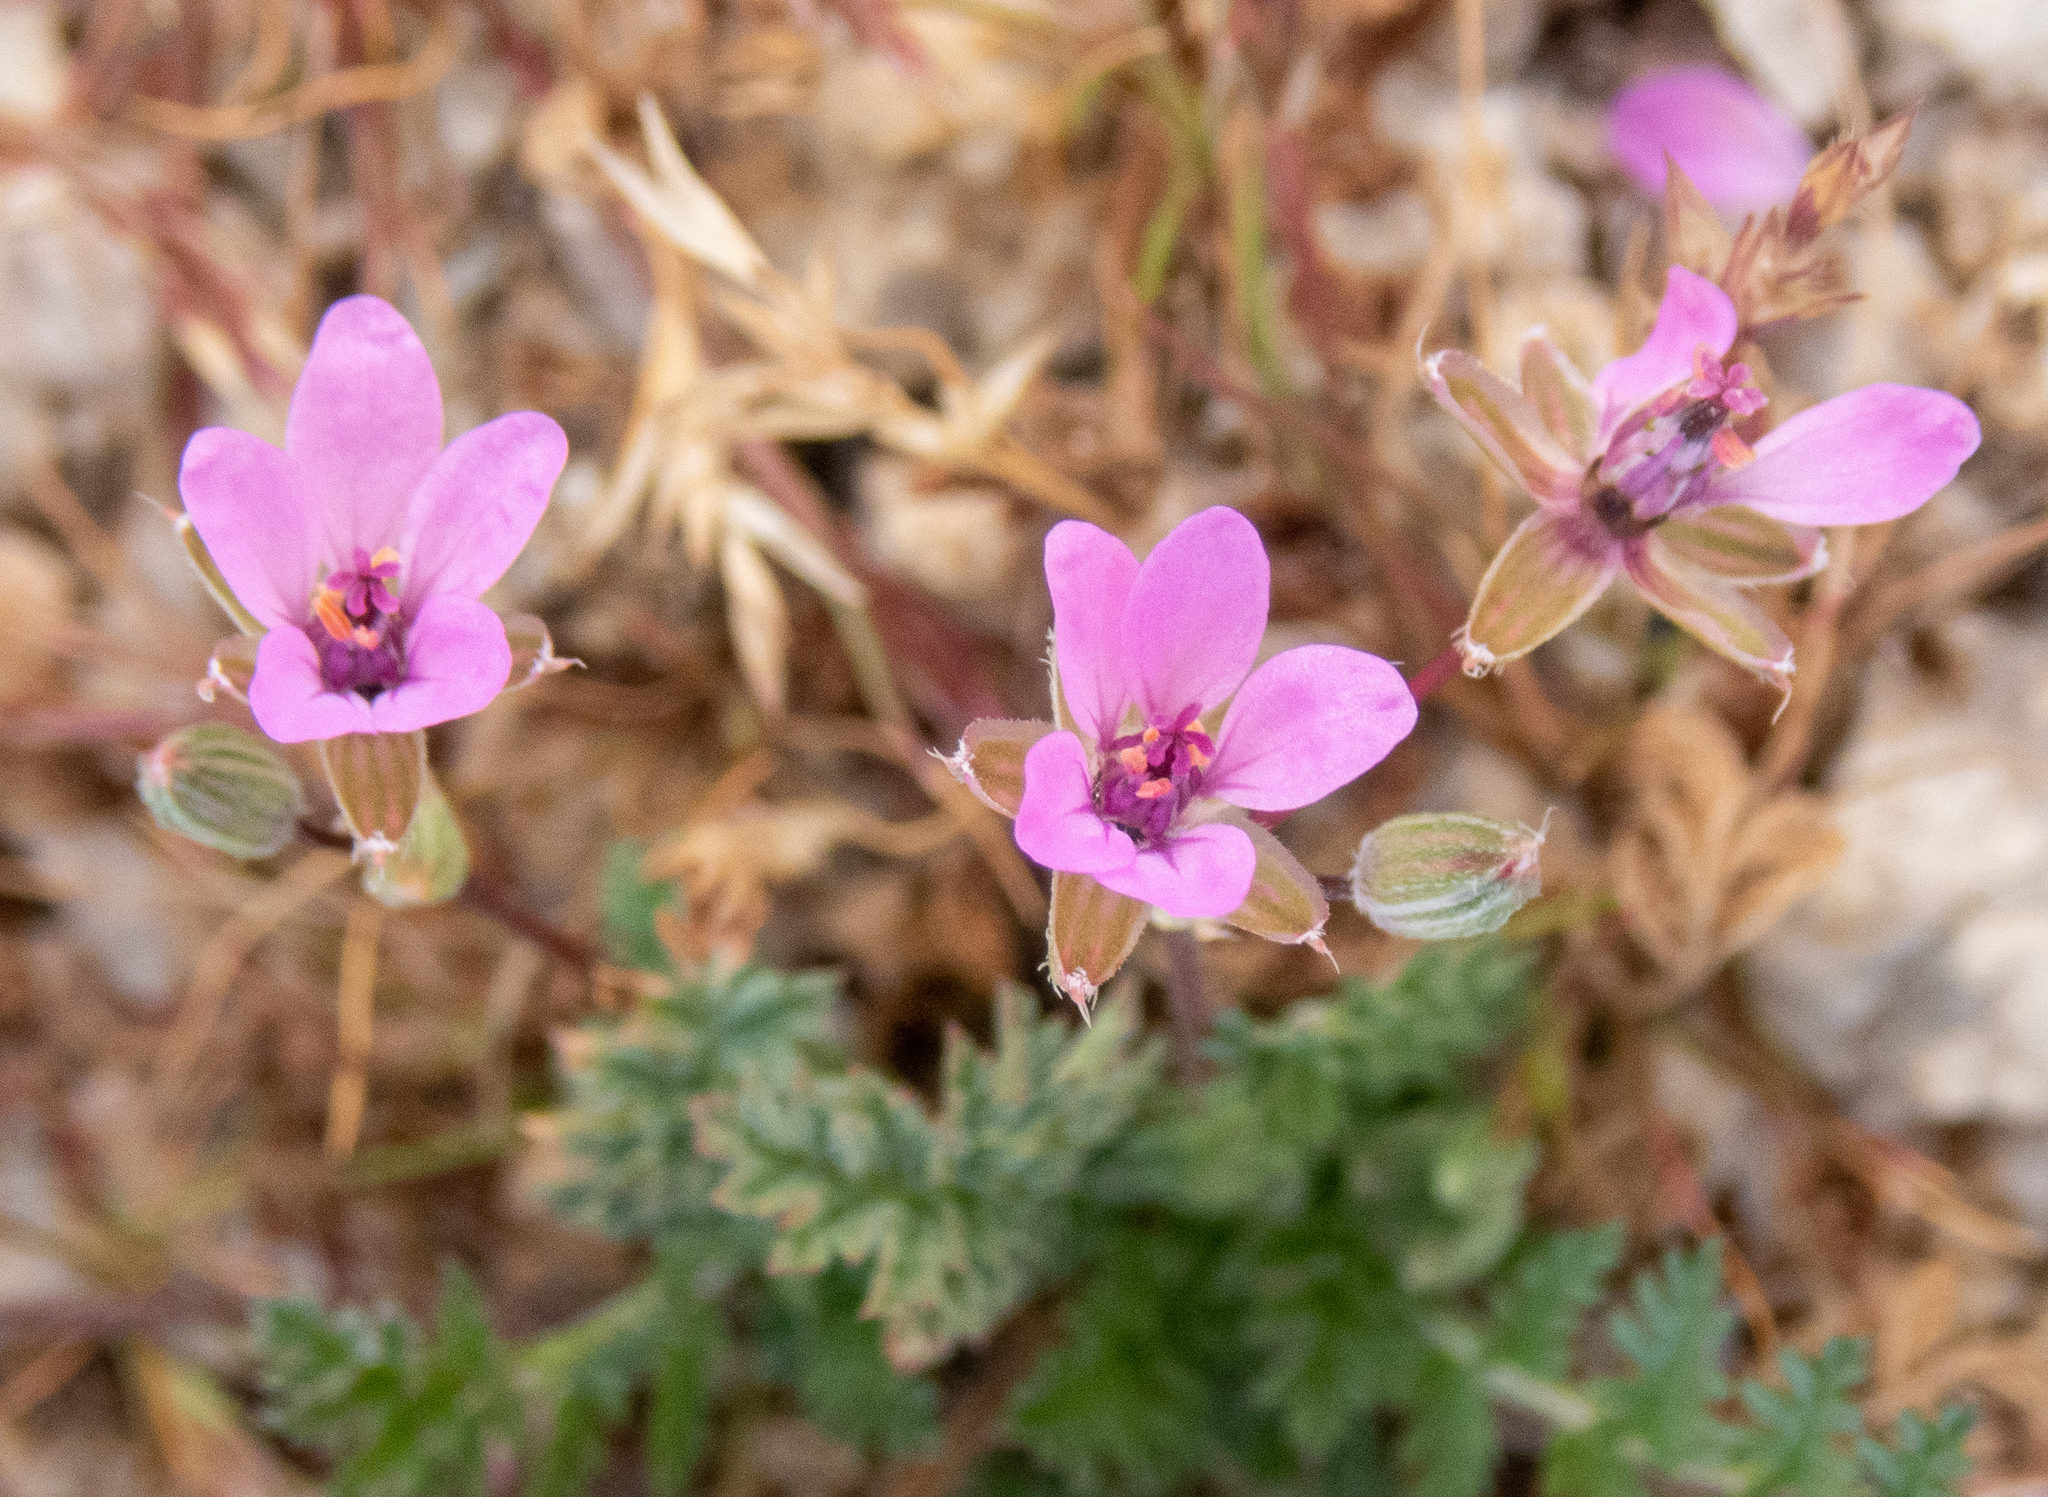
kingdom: Plantae
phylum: Tracheophyta
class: Magnoliopsida
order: Geraniales
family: Geraniaceae
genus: Erodium
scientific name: Erodium cicutarium
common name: Common stork's-bill
